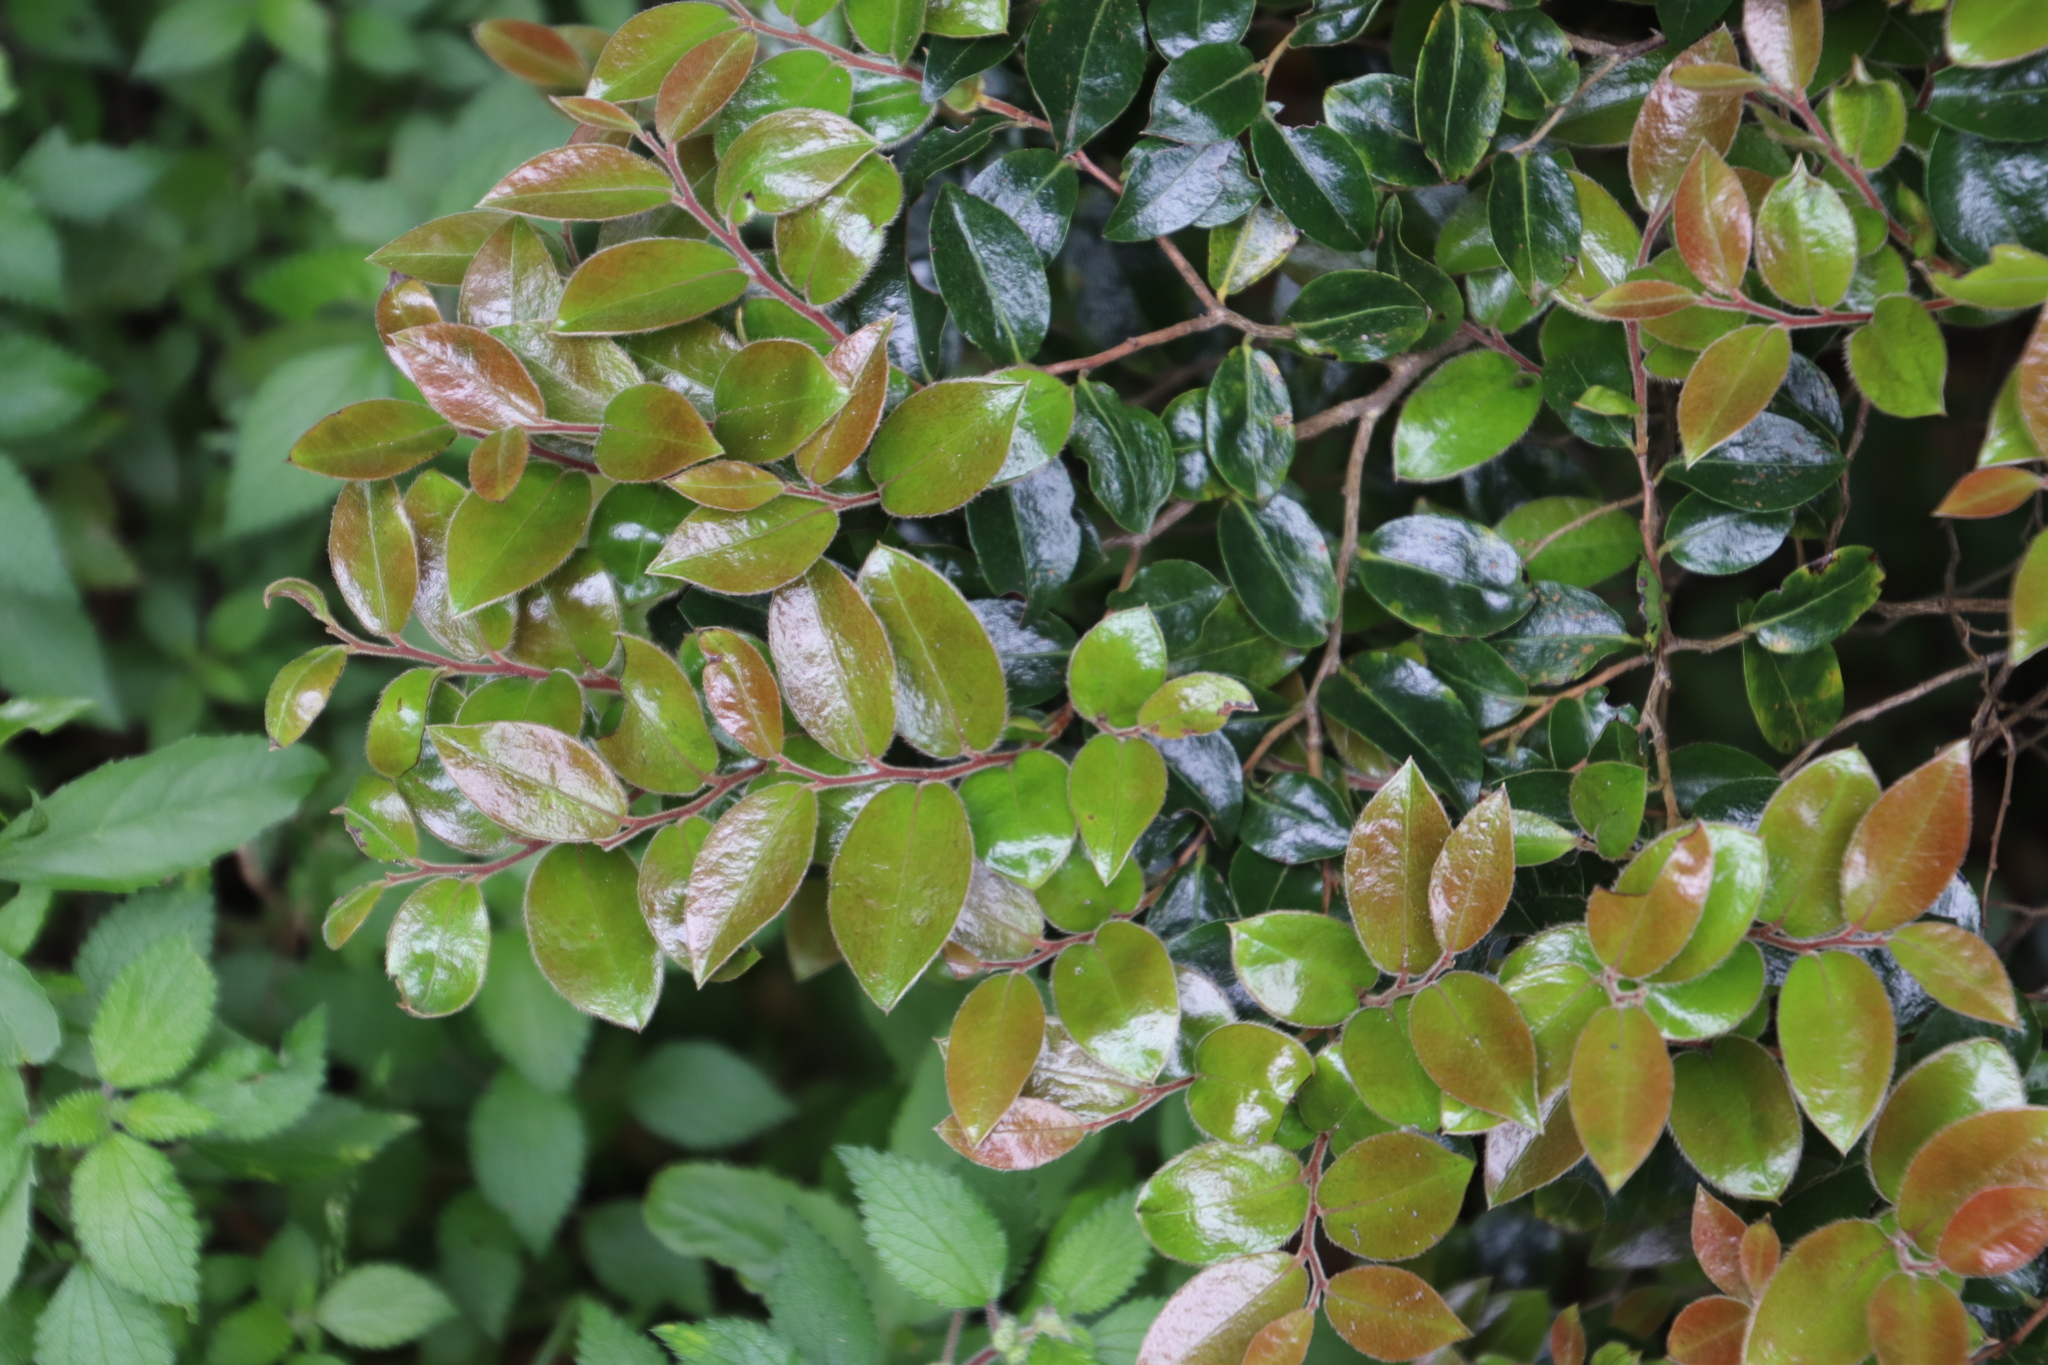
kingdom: Plantae
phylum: Tracheophyta
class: Magnoliopsida
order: Ericales
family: Ebenaceae
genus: Diospyros
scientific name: Diospyros whyteana
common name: Bladder-nut
